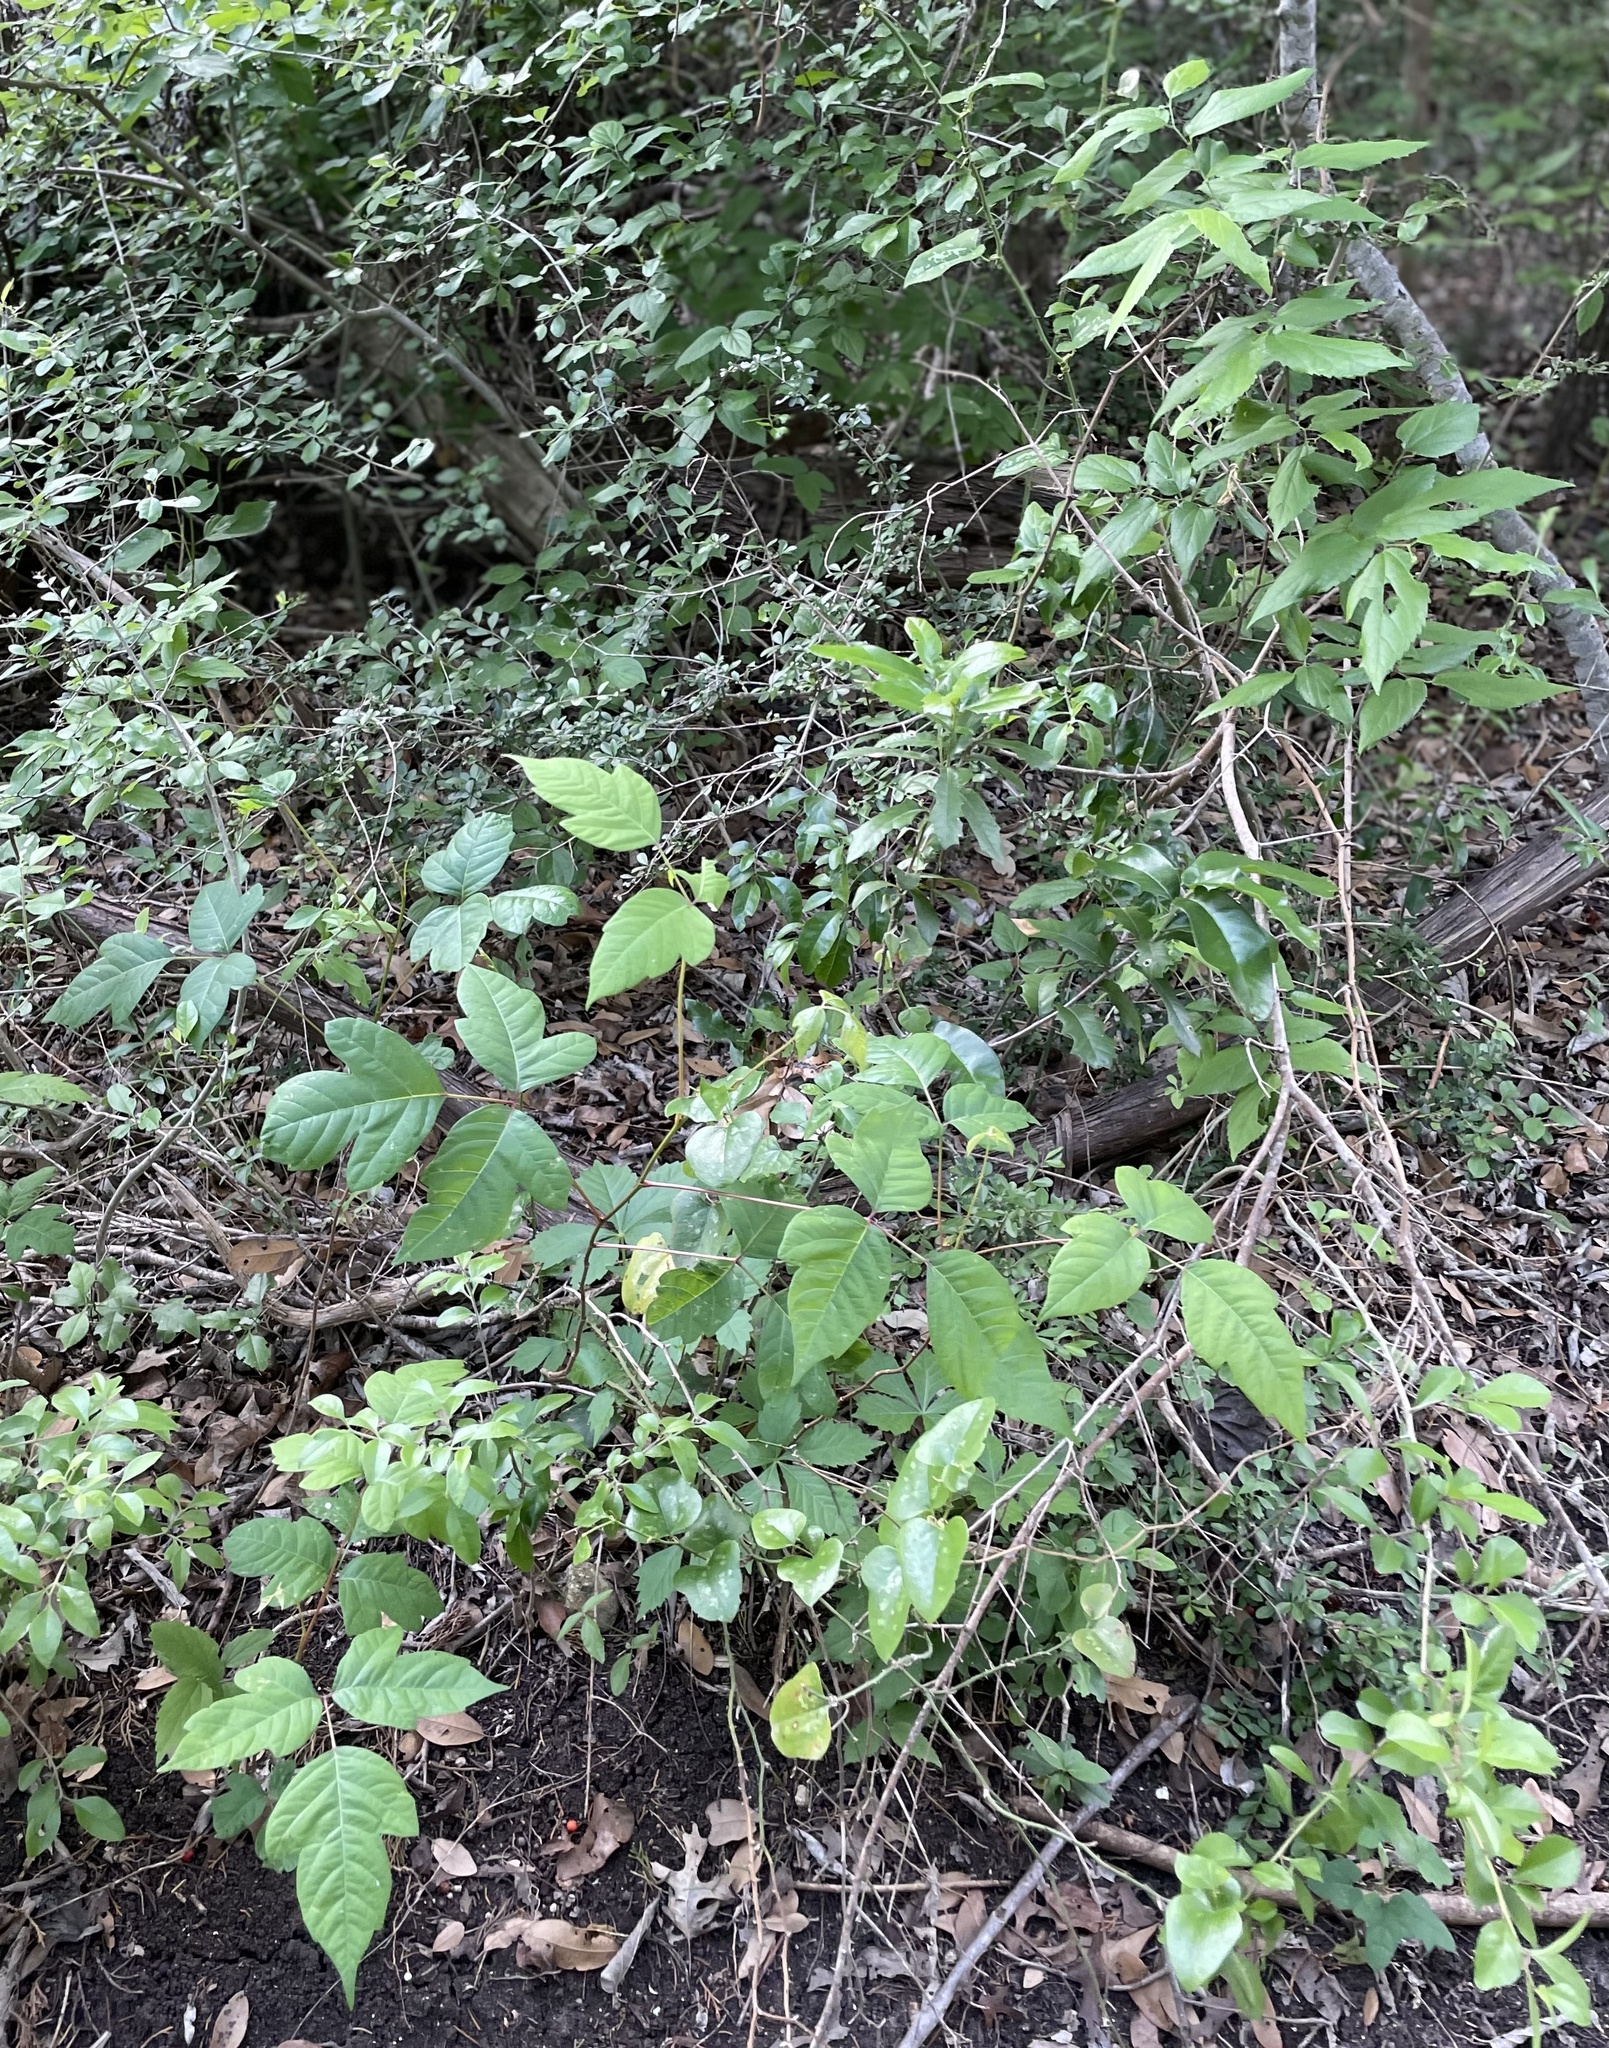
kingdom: Plantae
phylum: Tracheophyta
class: Magnoliopsida
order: Sapindales
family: Anacardiaceae
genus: Toxicodendron
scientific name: Toxicodendron radicans
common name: Poison ivy
